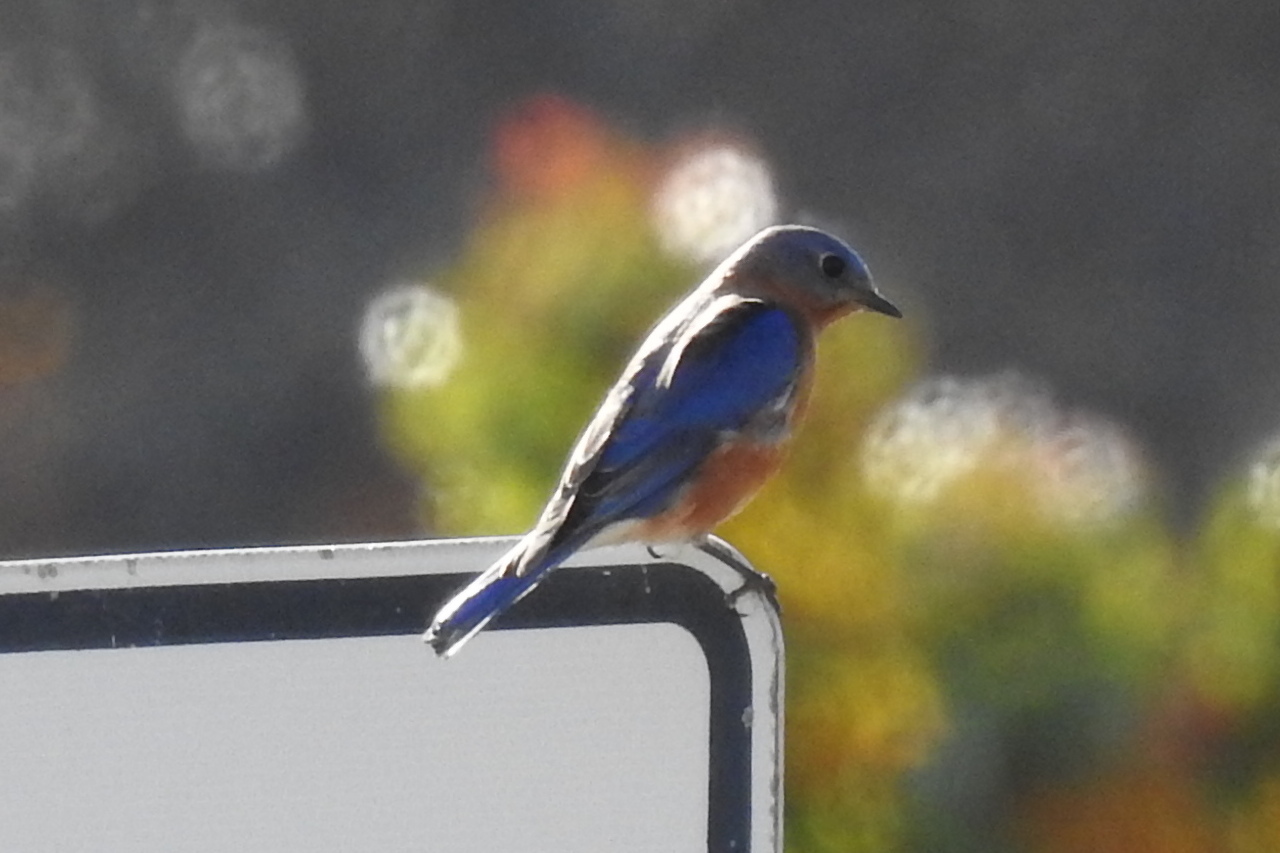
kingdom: Animalia
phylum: Chordata
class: Aves
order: Passeriformes
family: Turdidae
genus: Sialia
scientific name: Sialia sialis
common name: Eastern bluebird
